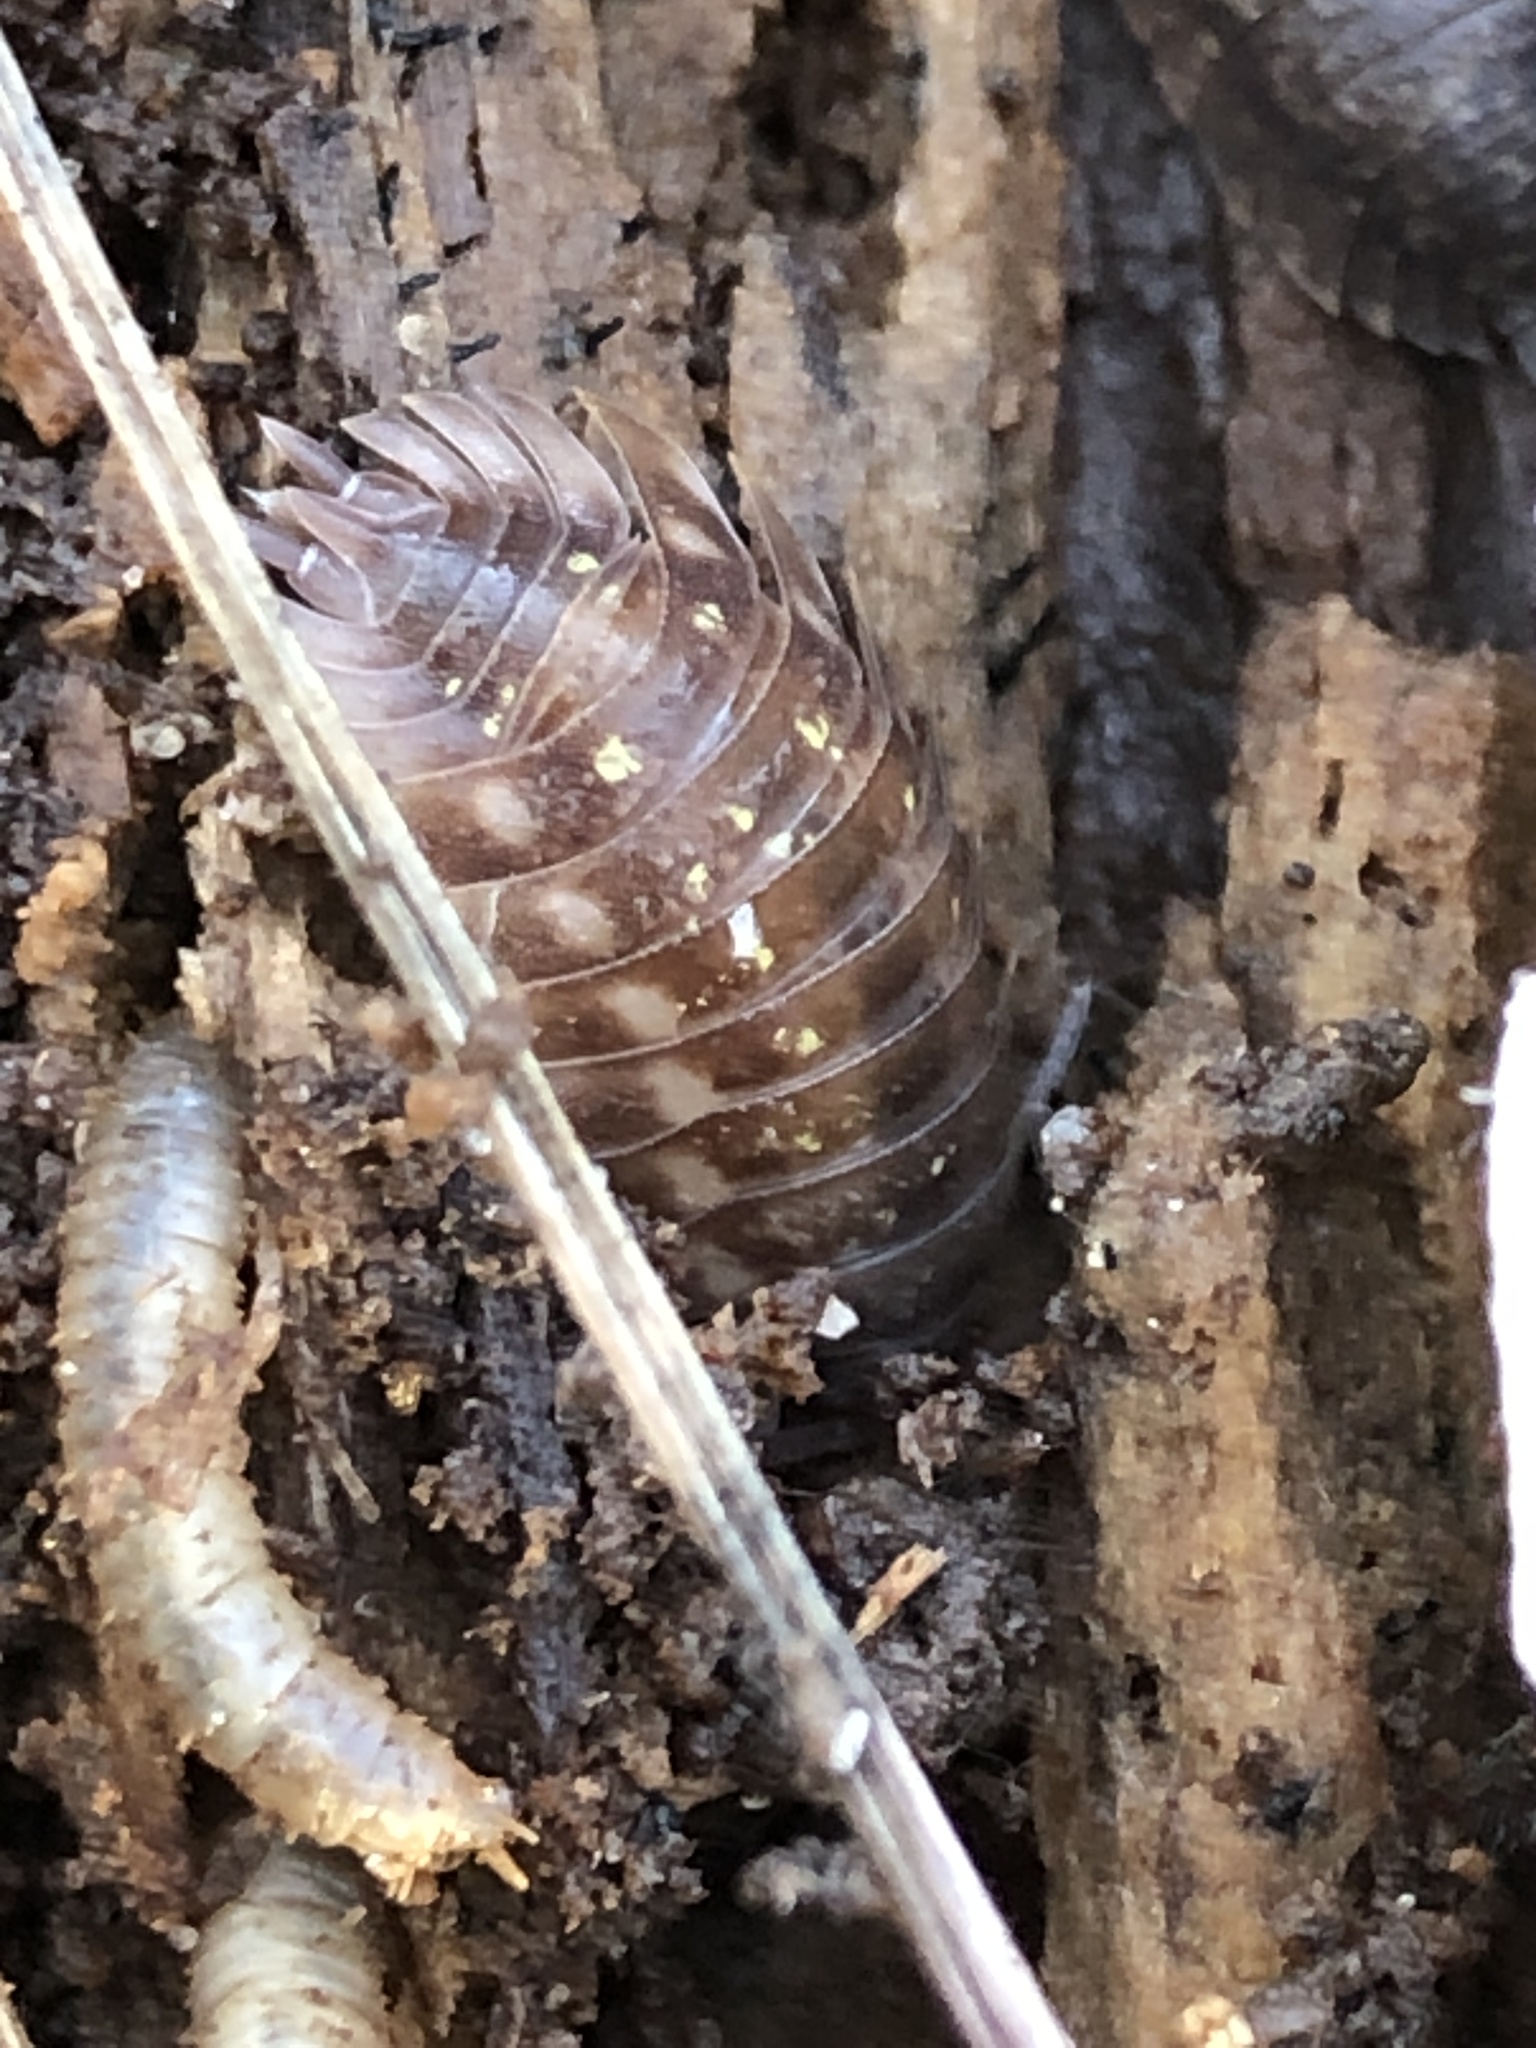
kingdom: Animalia
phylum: Arthropoda
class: Malacostraca
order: Isopoda
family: Oniscidae
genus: Oniscus
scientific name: Oniscus asellus
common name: Common shiny woodlouse
